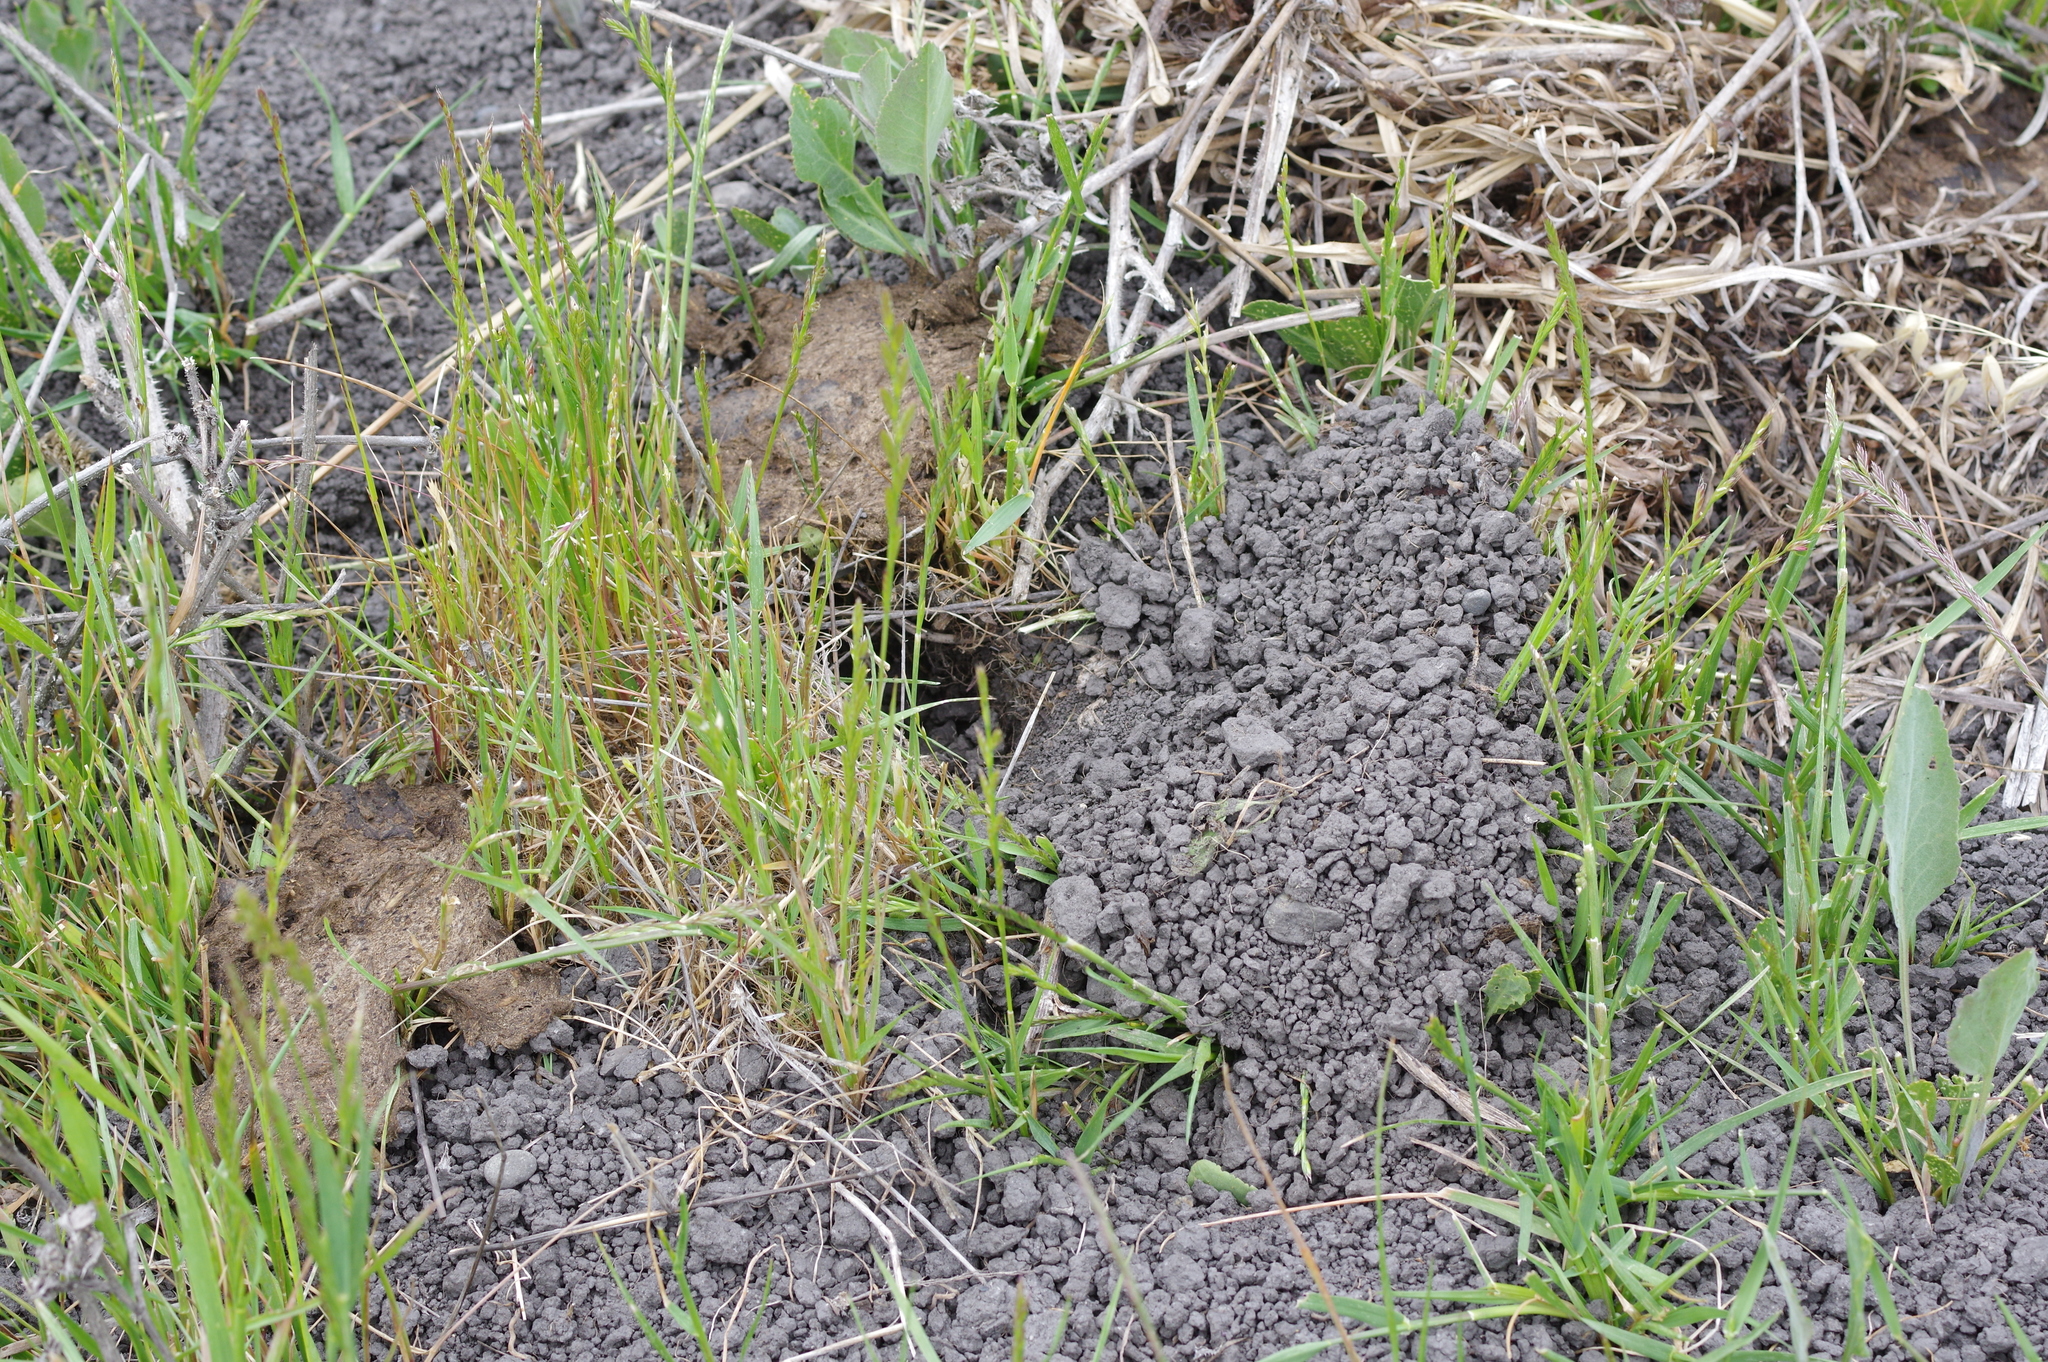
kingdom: Animalia
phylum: Chordata
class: Mammalia
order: Rodentia
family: Geomyidae
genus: Thomomys
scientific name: Thomomys bottae
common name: Botta's pocket gopher
